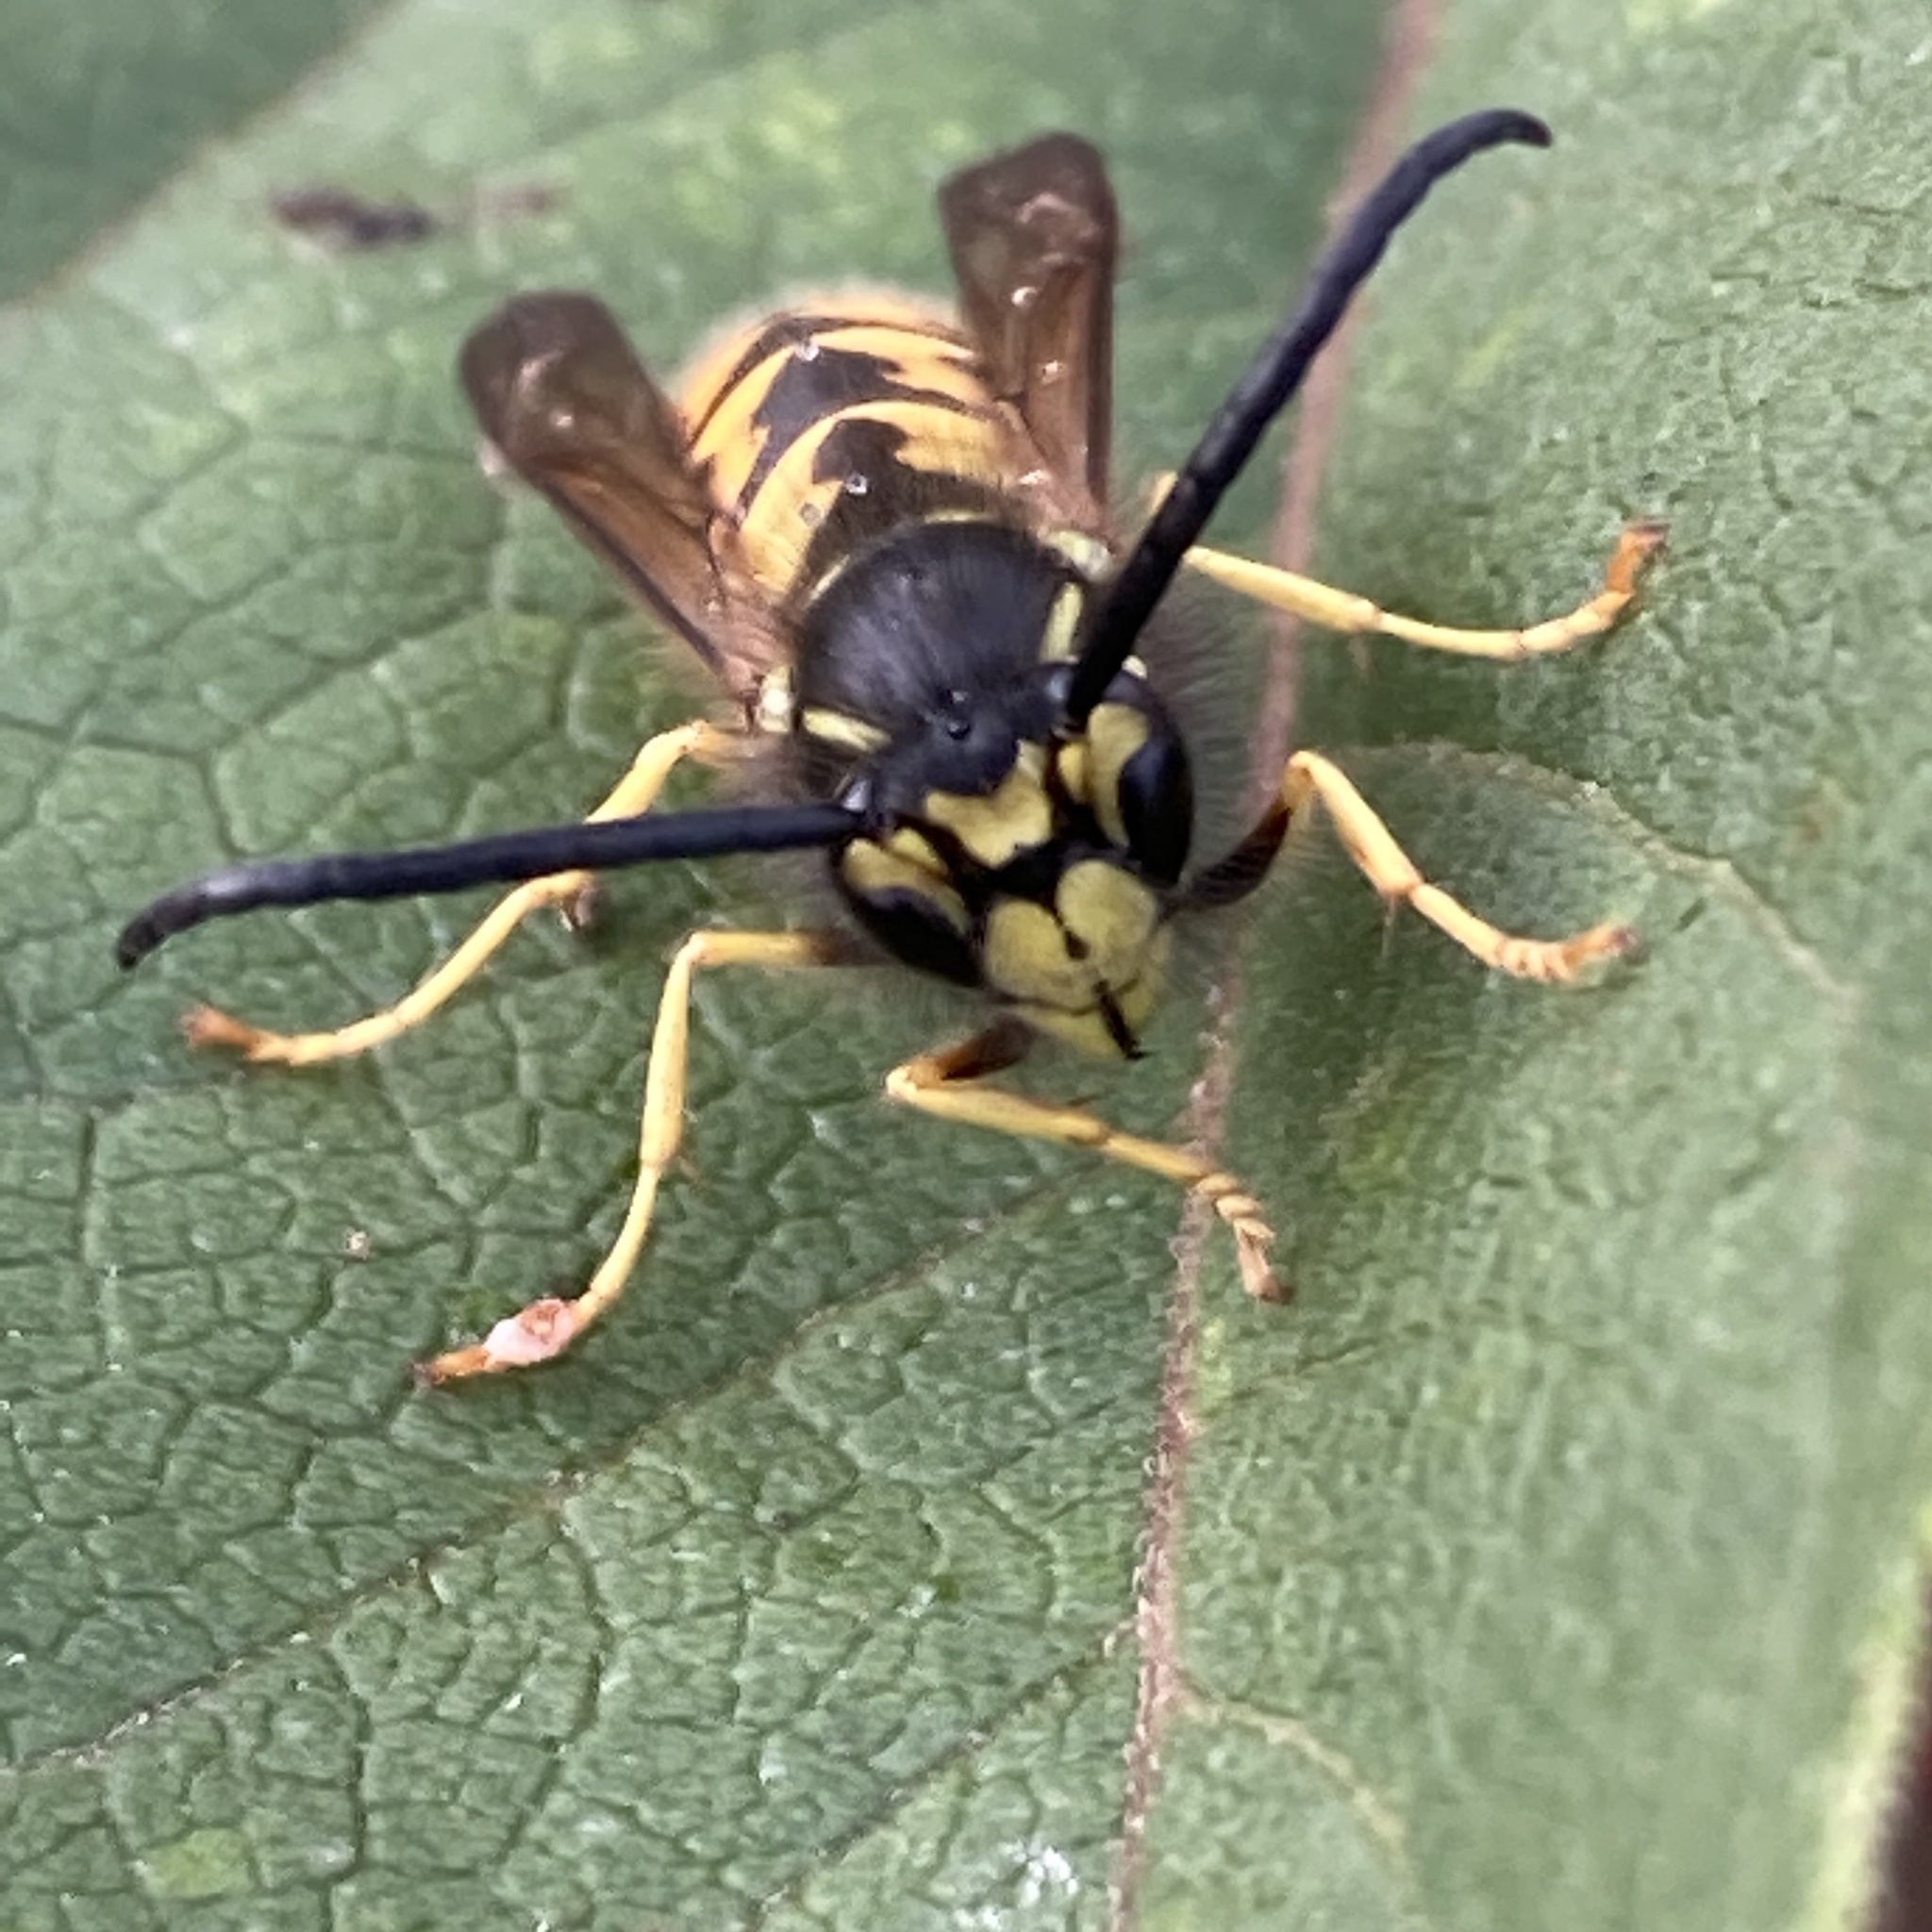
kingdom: Animalia
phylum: Arthropoda
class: Insecta
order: Hymenoptera
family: Vespidae
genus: Vespula
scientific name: Vespula germanica
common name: German wasp
